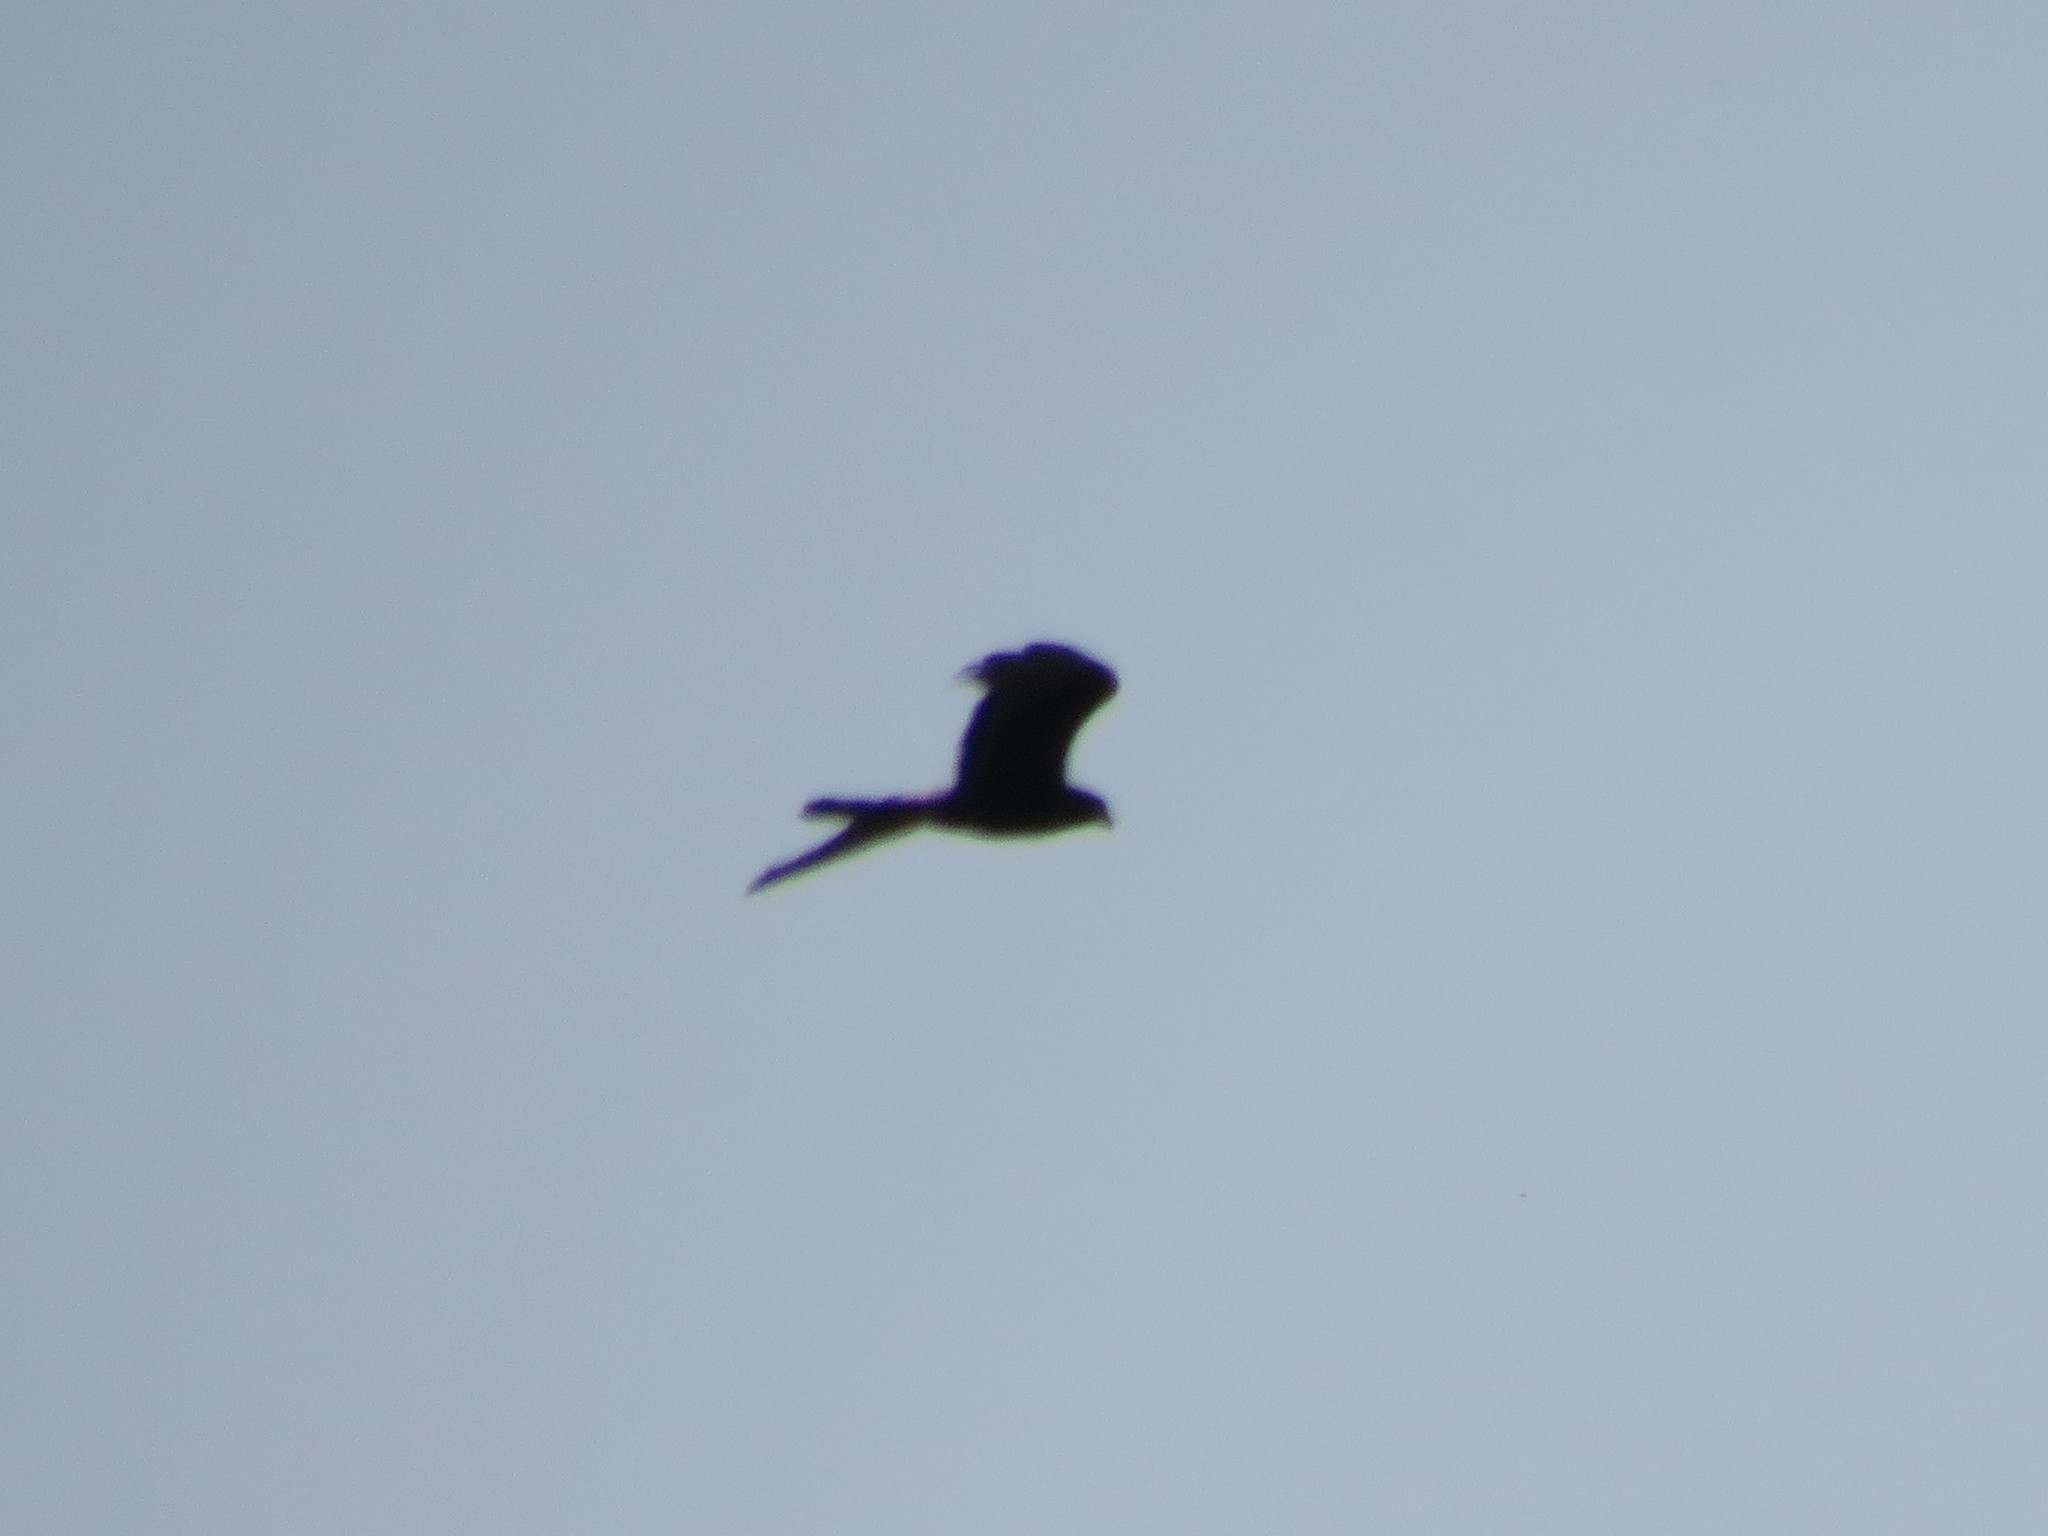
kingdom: Animalia
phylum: Chordata
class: Aves
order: Falconiformes
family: Falconidae
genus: Daptrius
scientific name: Daptrius
